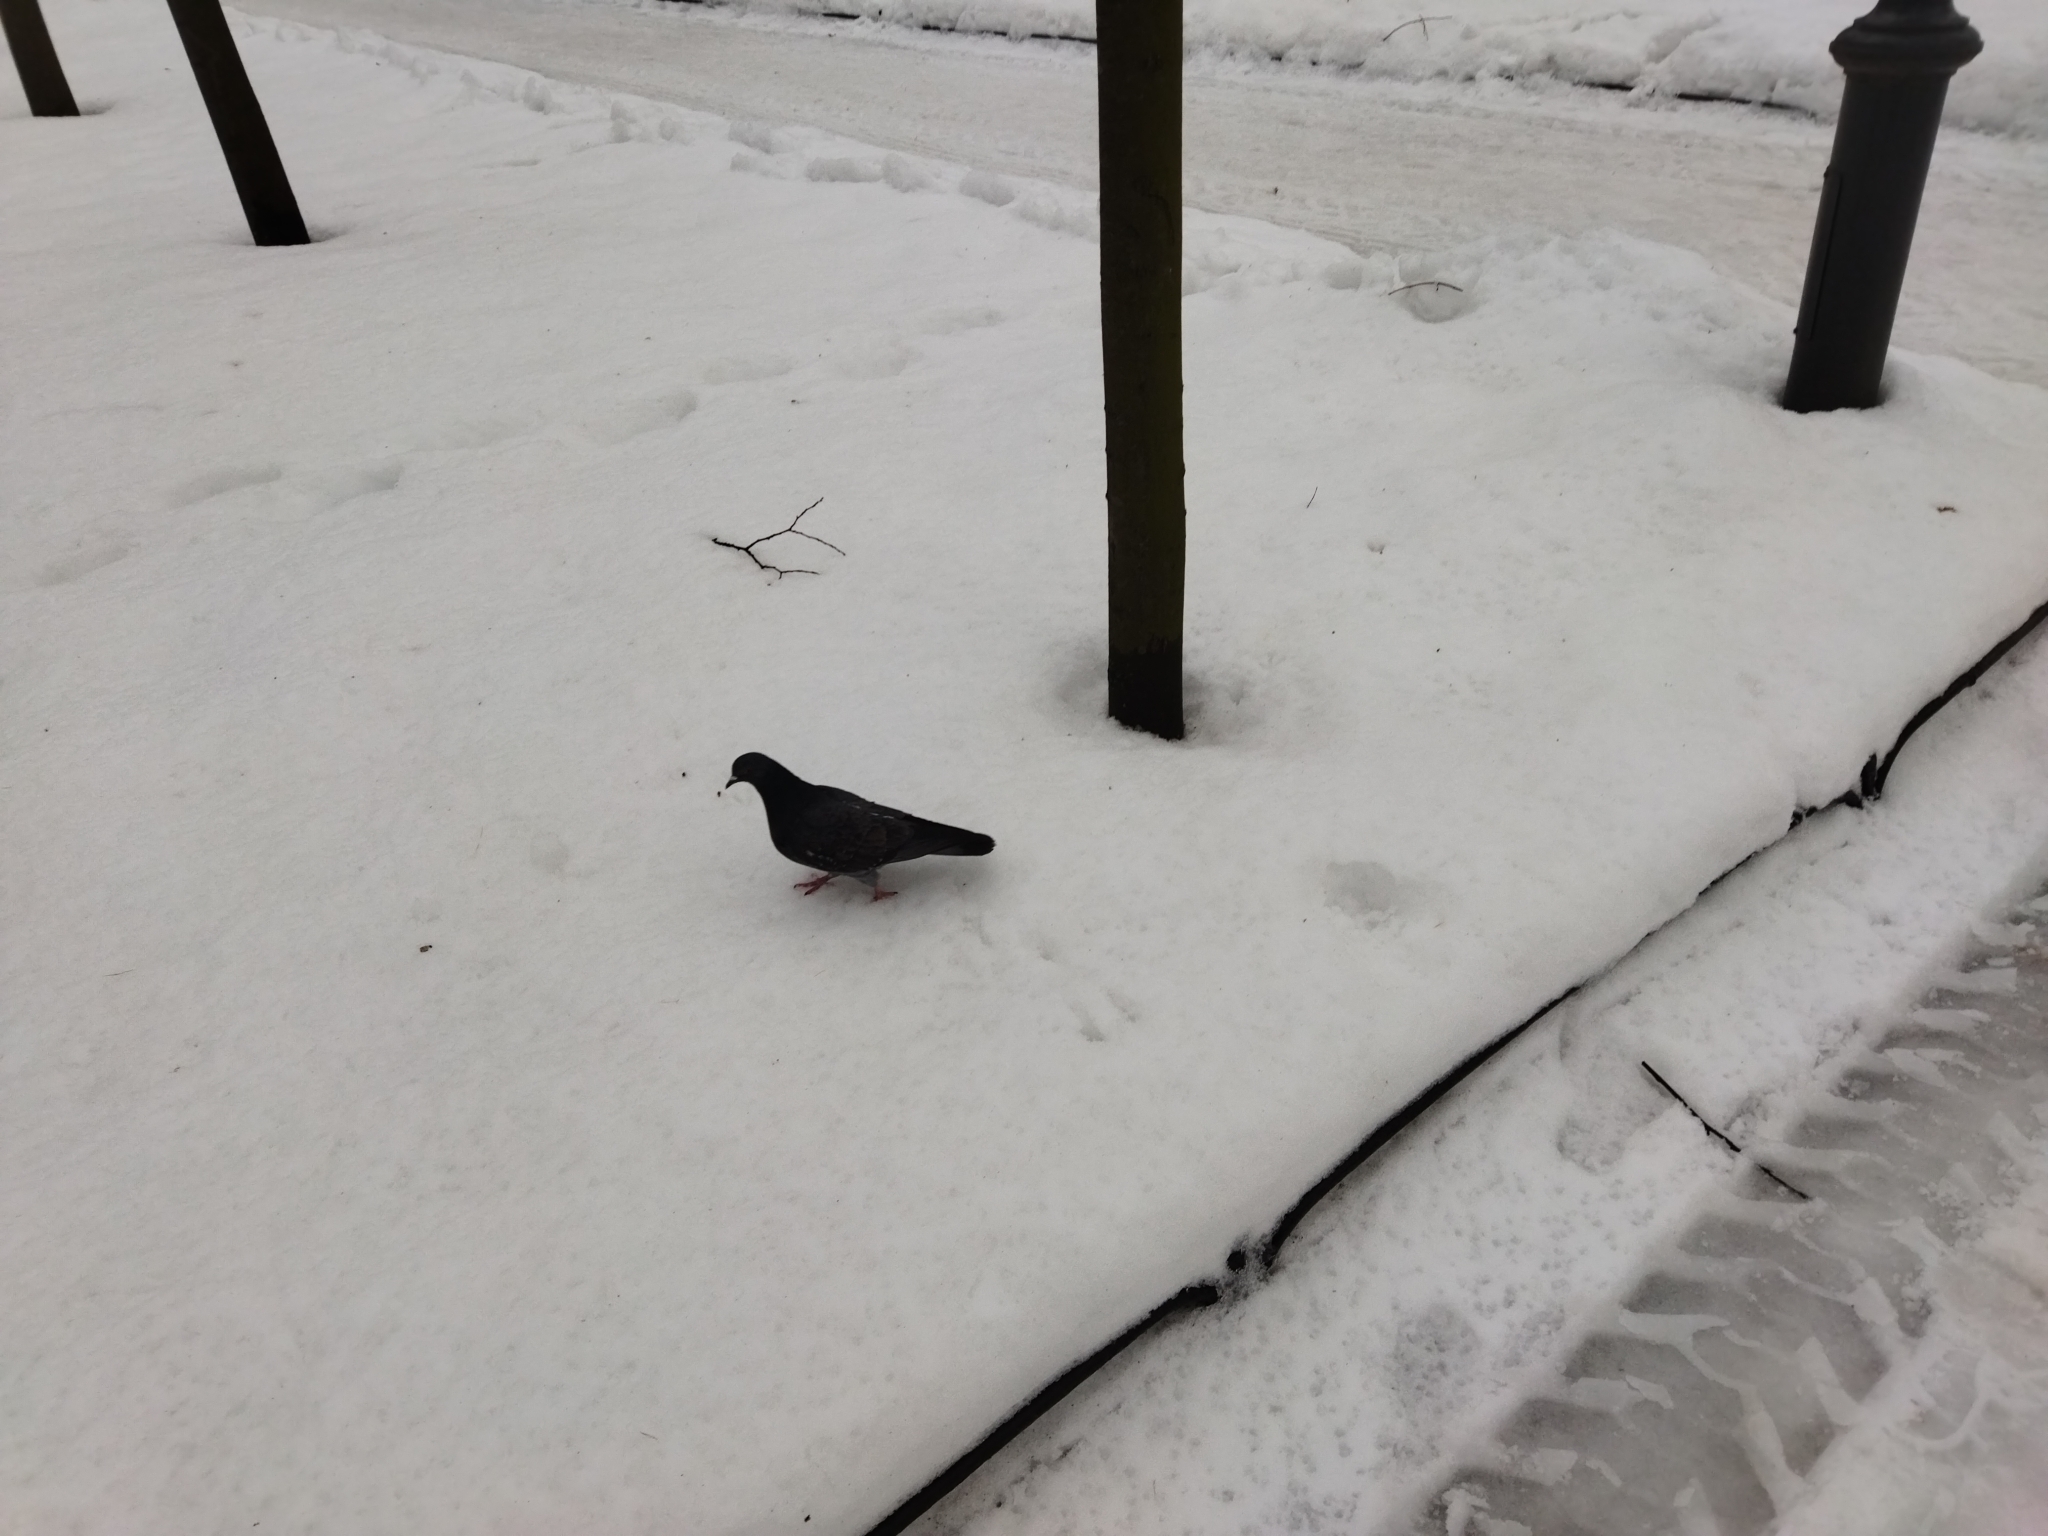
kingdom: Animalia
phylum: Chordata
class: Aves
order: Columbiformes
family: Columbidae
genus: Columba
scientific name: Columba livia
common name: Rock pigeon
